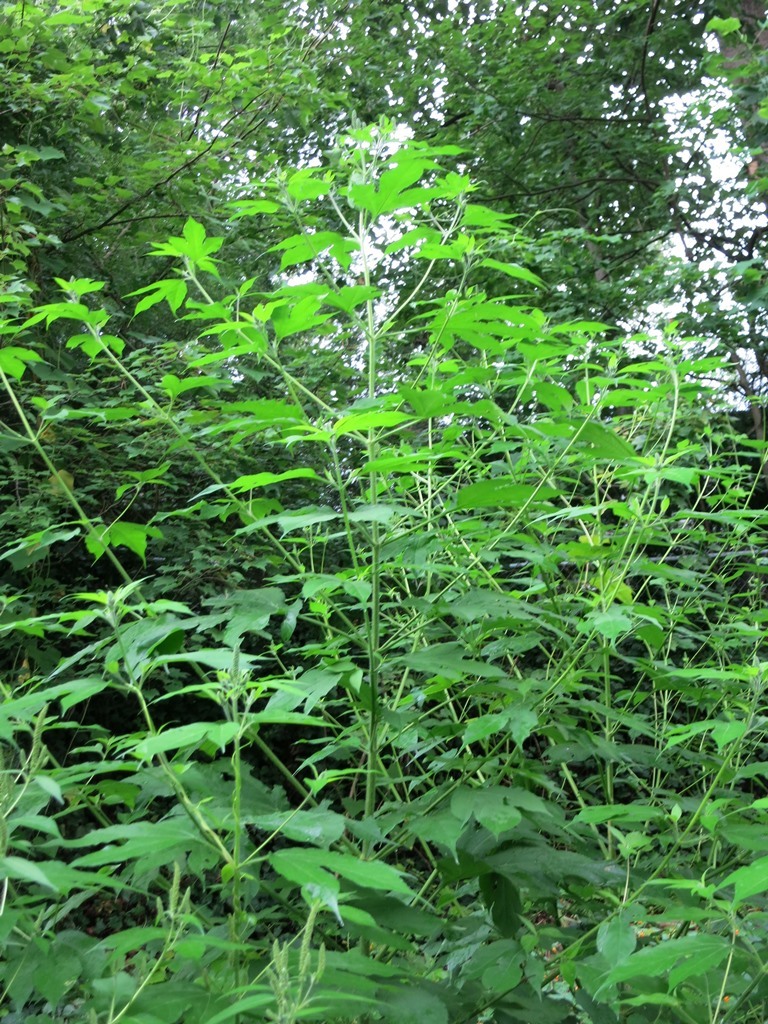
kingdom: Plantae
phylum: Tracheophyta
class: Magnoliopsida
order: Asterales
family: Asteraceae
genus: Ambrosia
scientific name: Ambrosia trifida
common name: Giant ragweed
